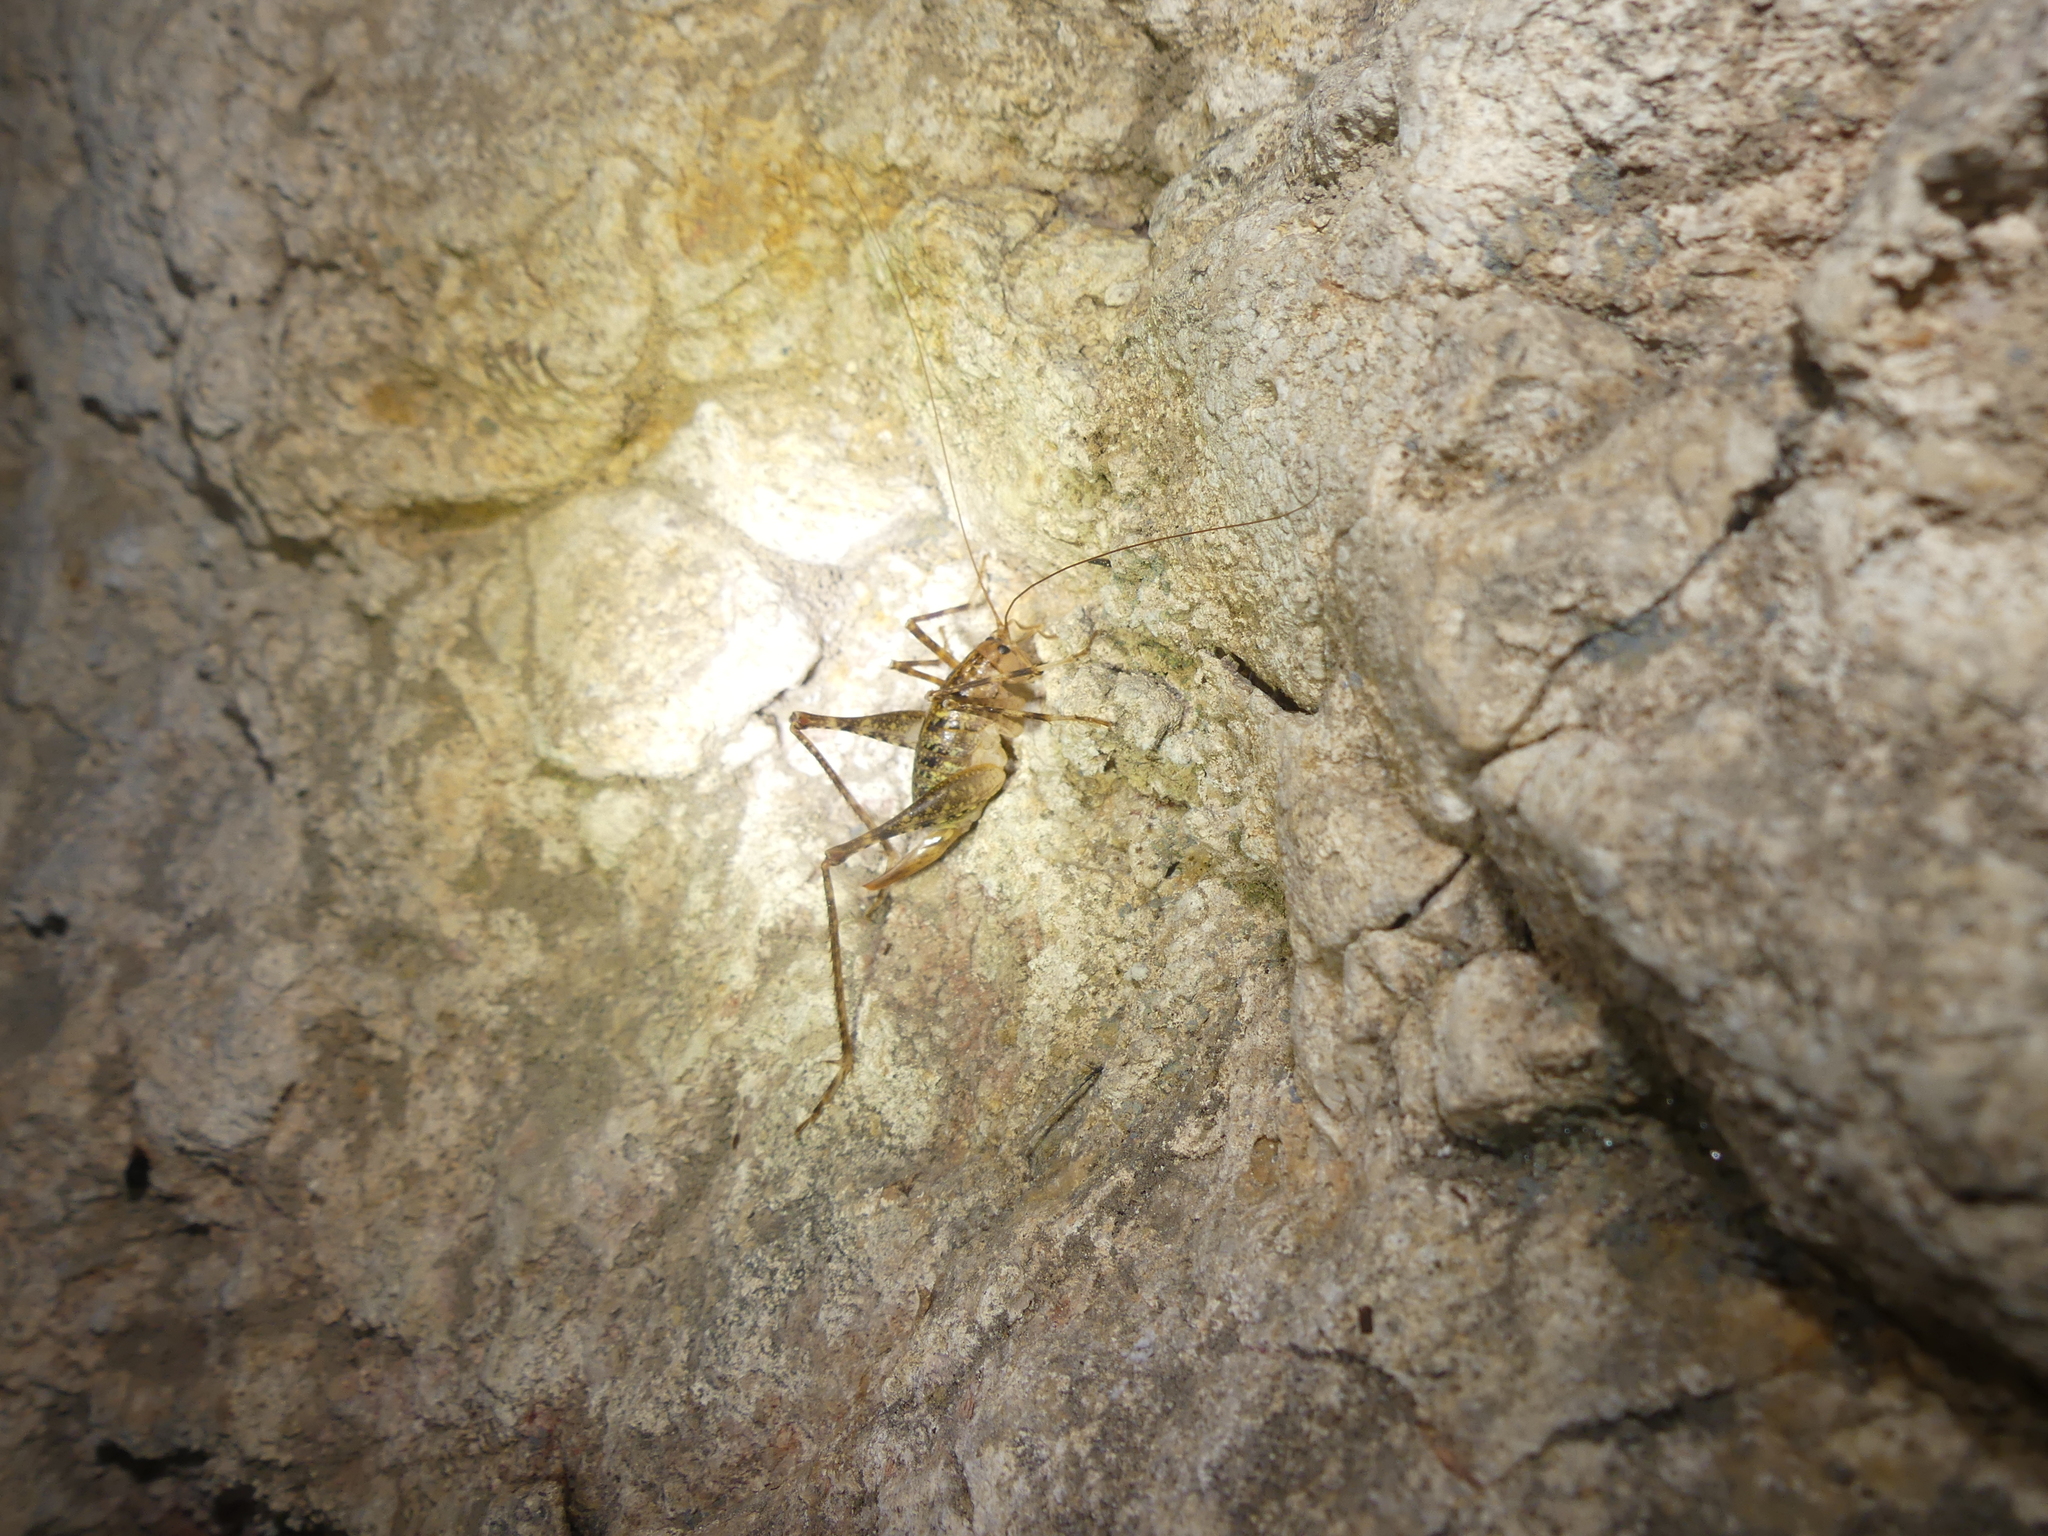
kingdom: Animalia
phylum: Arthropoda
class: Insecta
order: Orthoptera
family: Rhaphidophoridae
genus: Troglophilus
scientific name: Troglophilus neglectus
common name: Neglected cave-cricket
